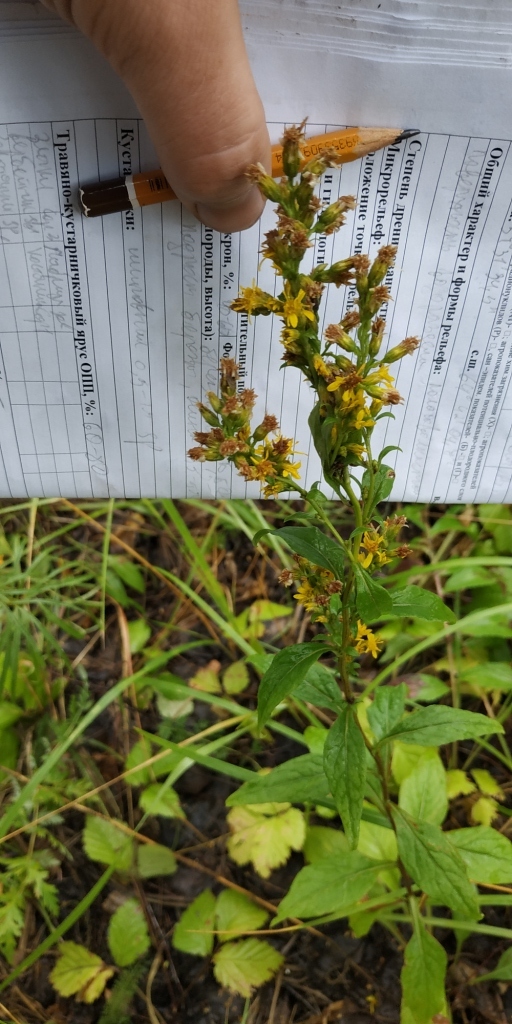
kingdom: Plantae
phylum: Tracheophyta
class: Magnoliopsida
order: Asterales
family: Asteraceae
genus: Solidago
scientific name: Solidago virgaurea
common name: Goldenrod
